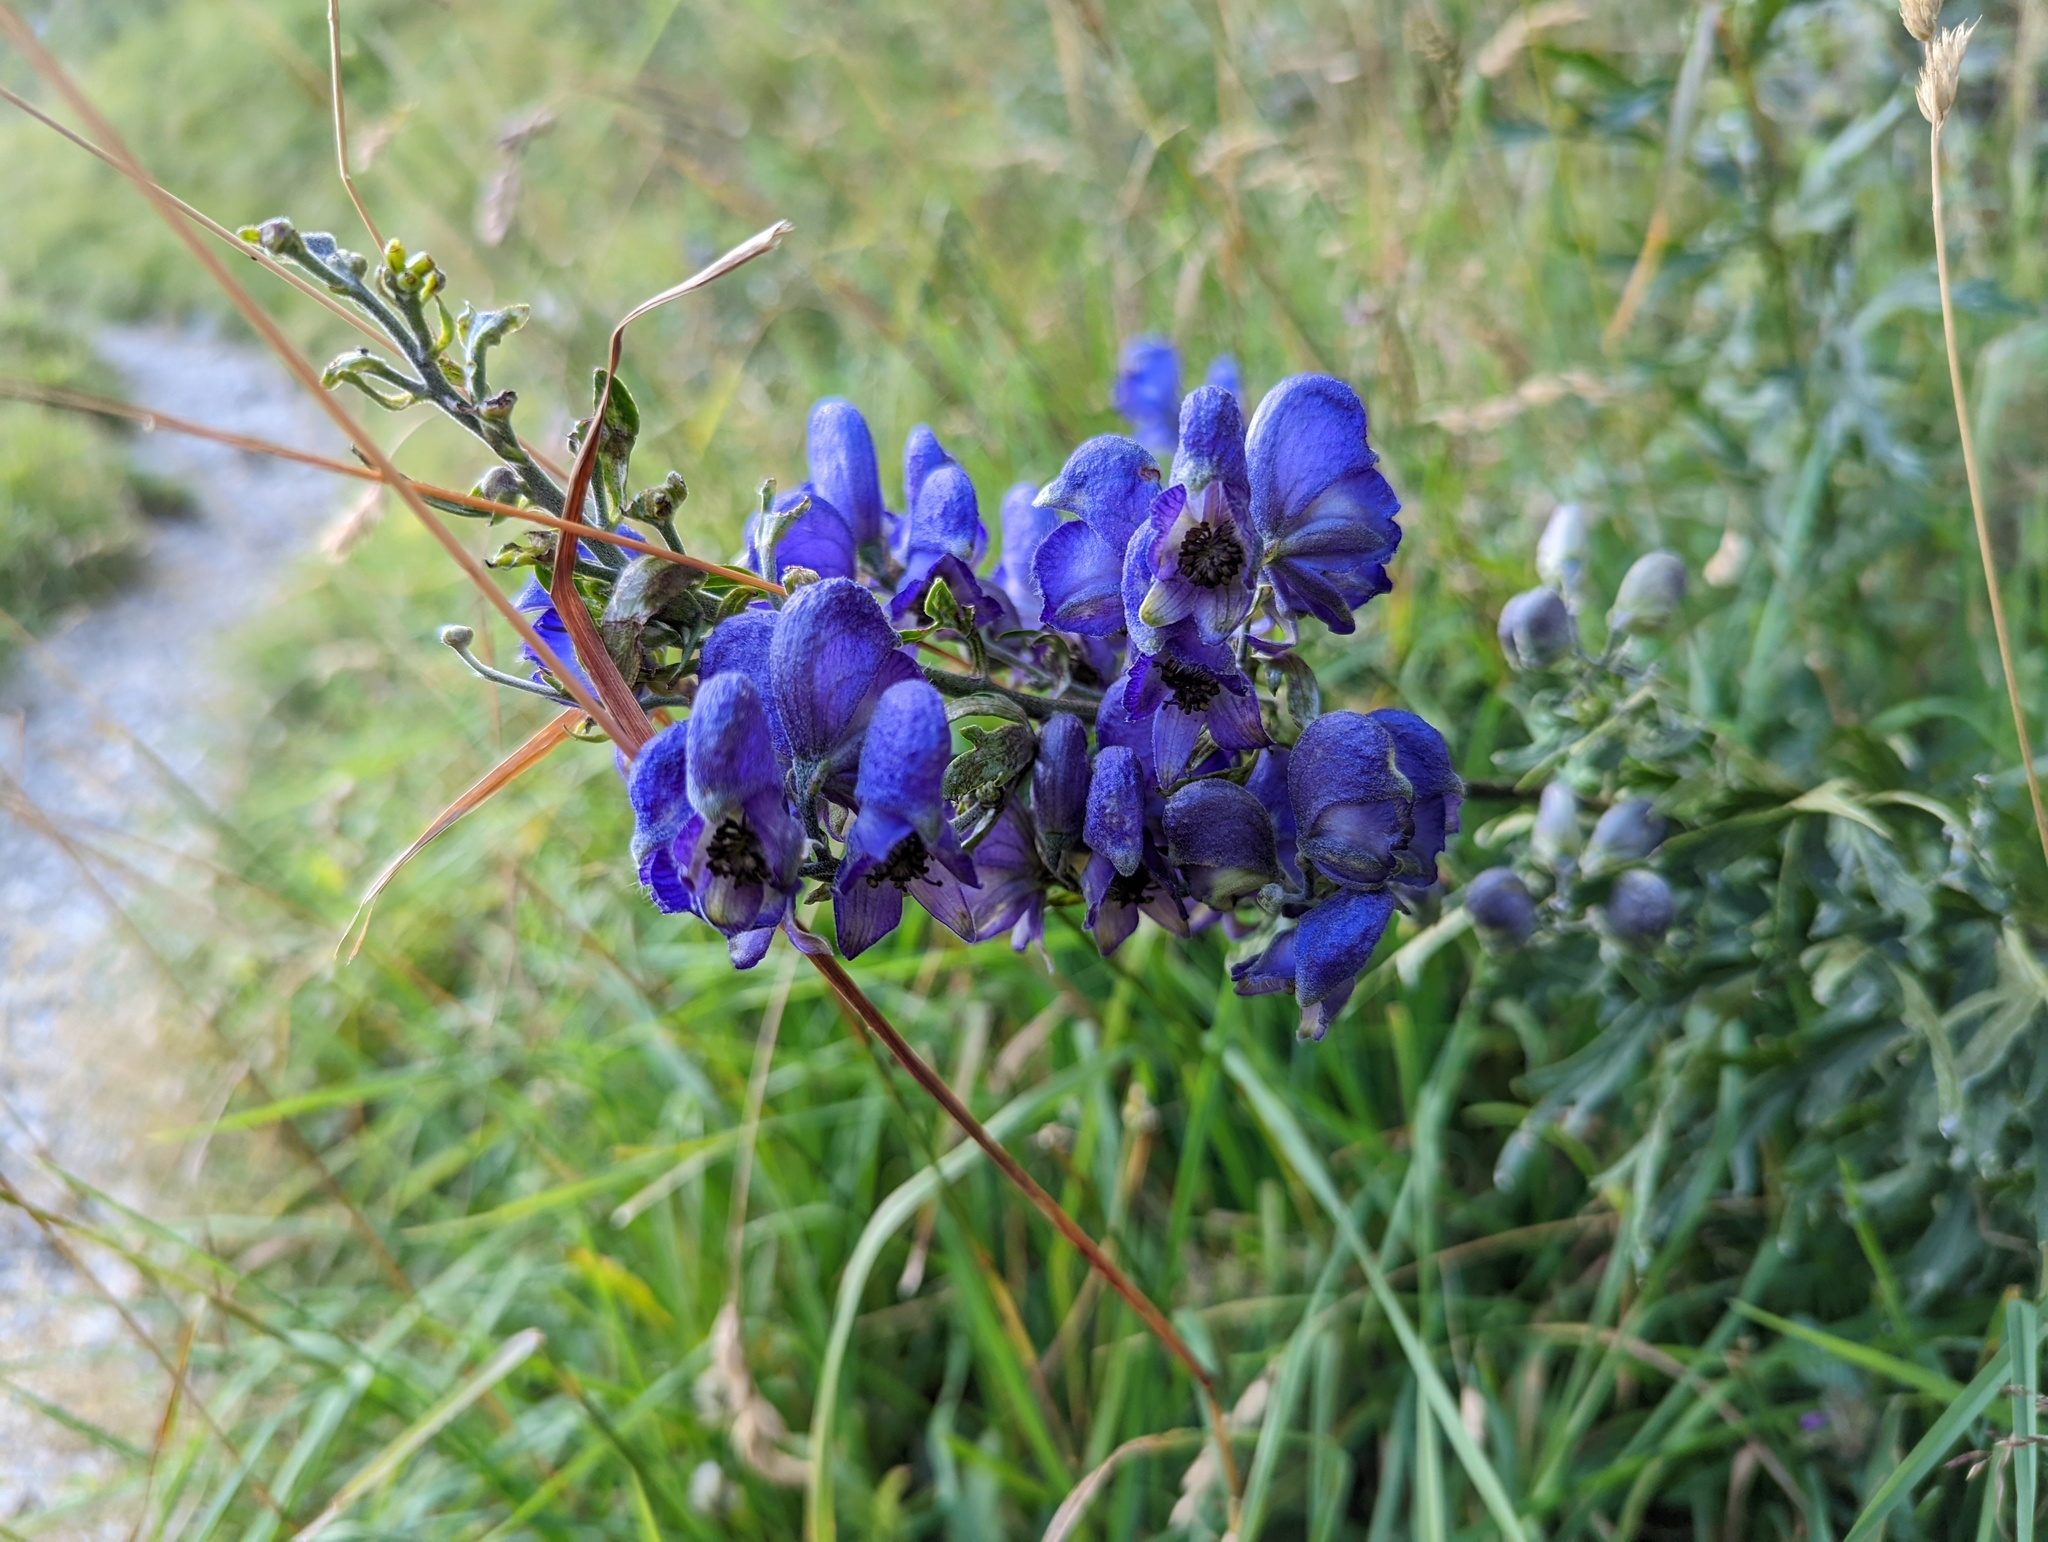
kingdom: Plantae
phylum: Tracheophyta
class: Magnoliopsida
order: Ranunculales
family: Ranunculaceae
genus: Aconitum
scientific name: Aconitum napellus
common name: Garden monkshood
